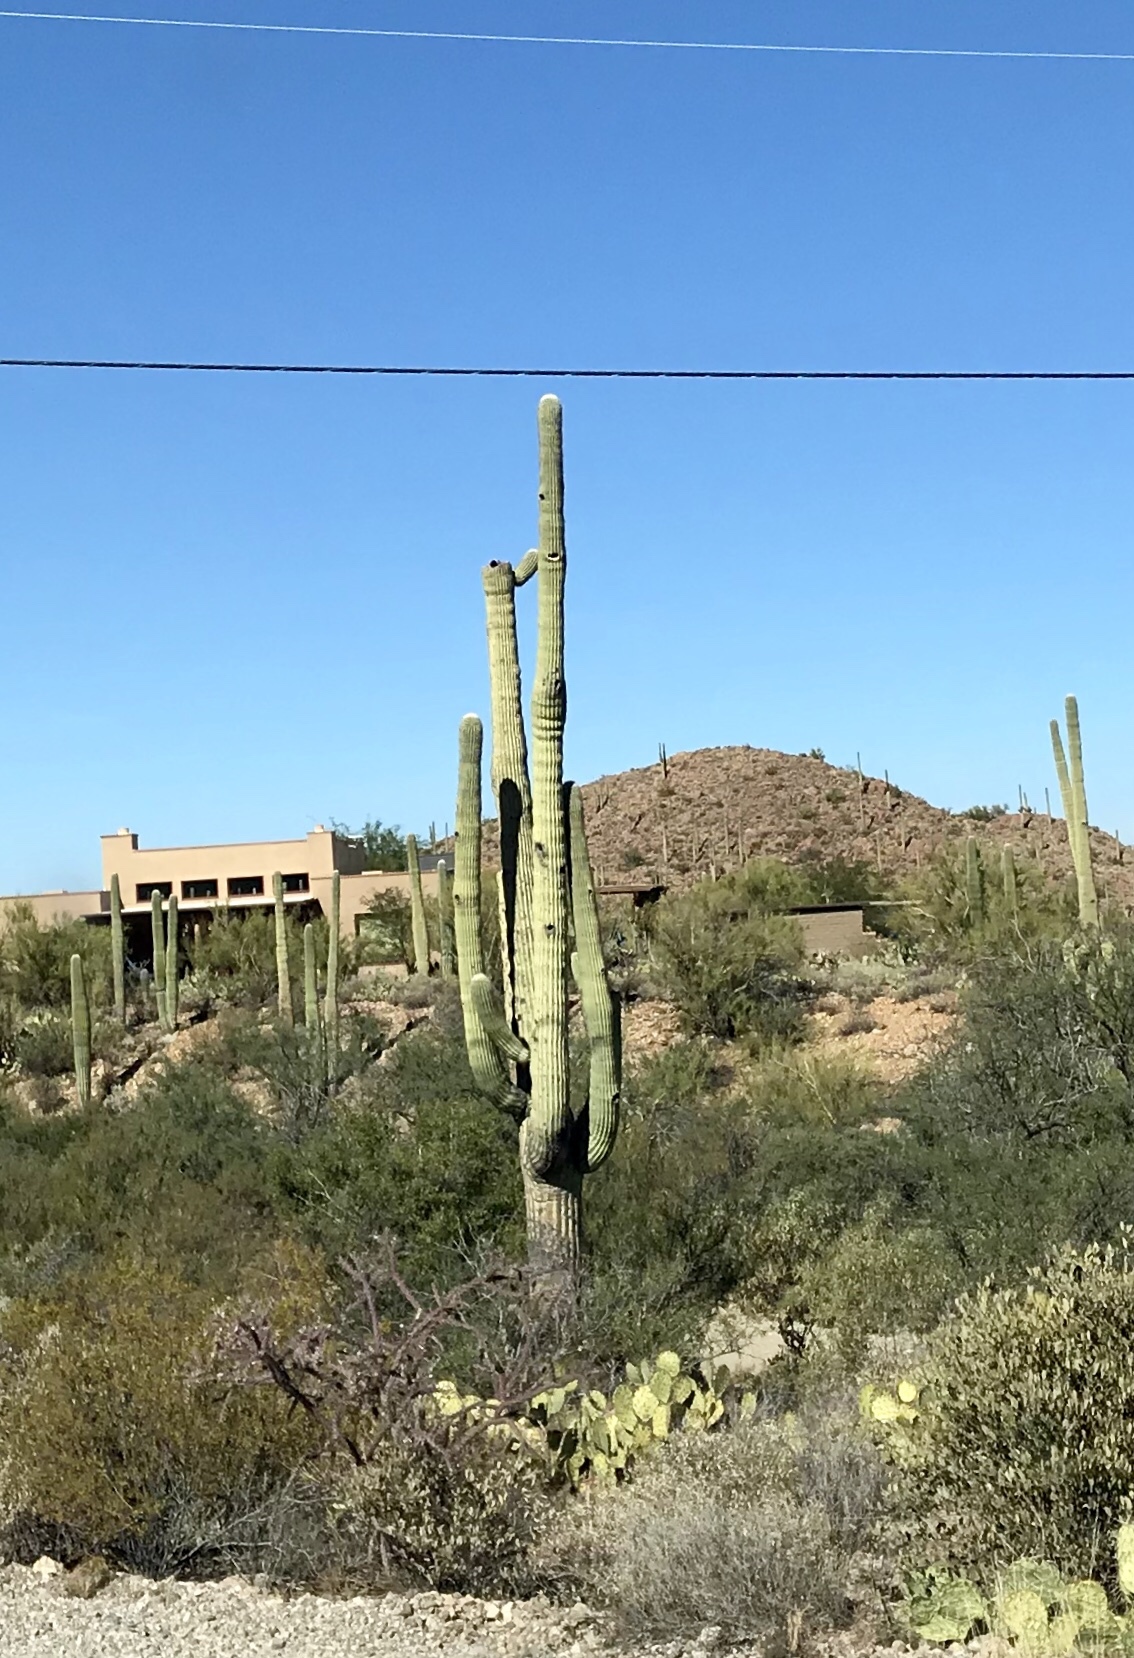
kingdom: Plantae
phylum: Tracheophyta
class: Magnoliopsida
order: Caryophyllales
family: Cactaceae
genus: Carnegiea
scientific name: Carnegiea gigantea
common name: Saguaro
